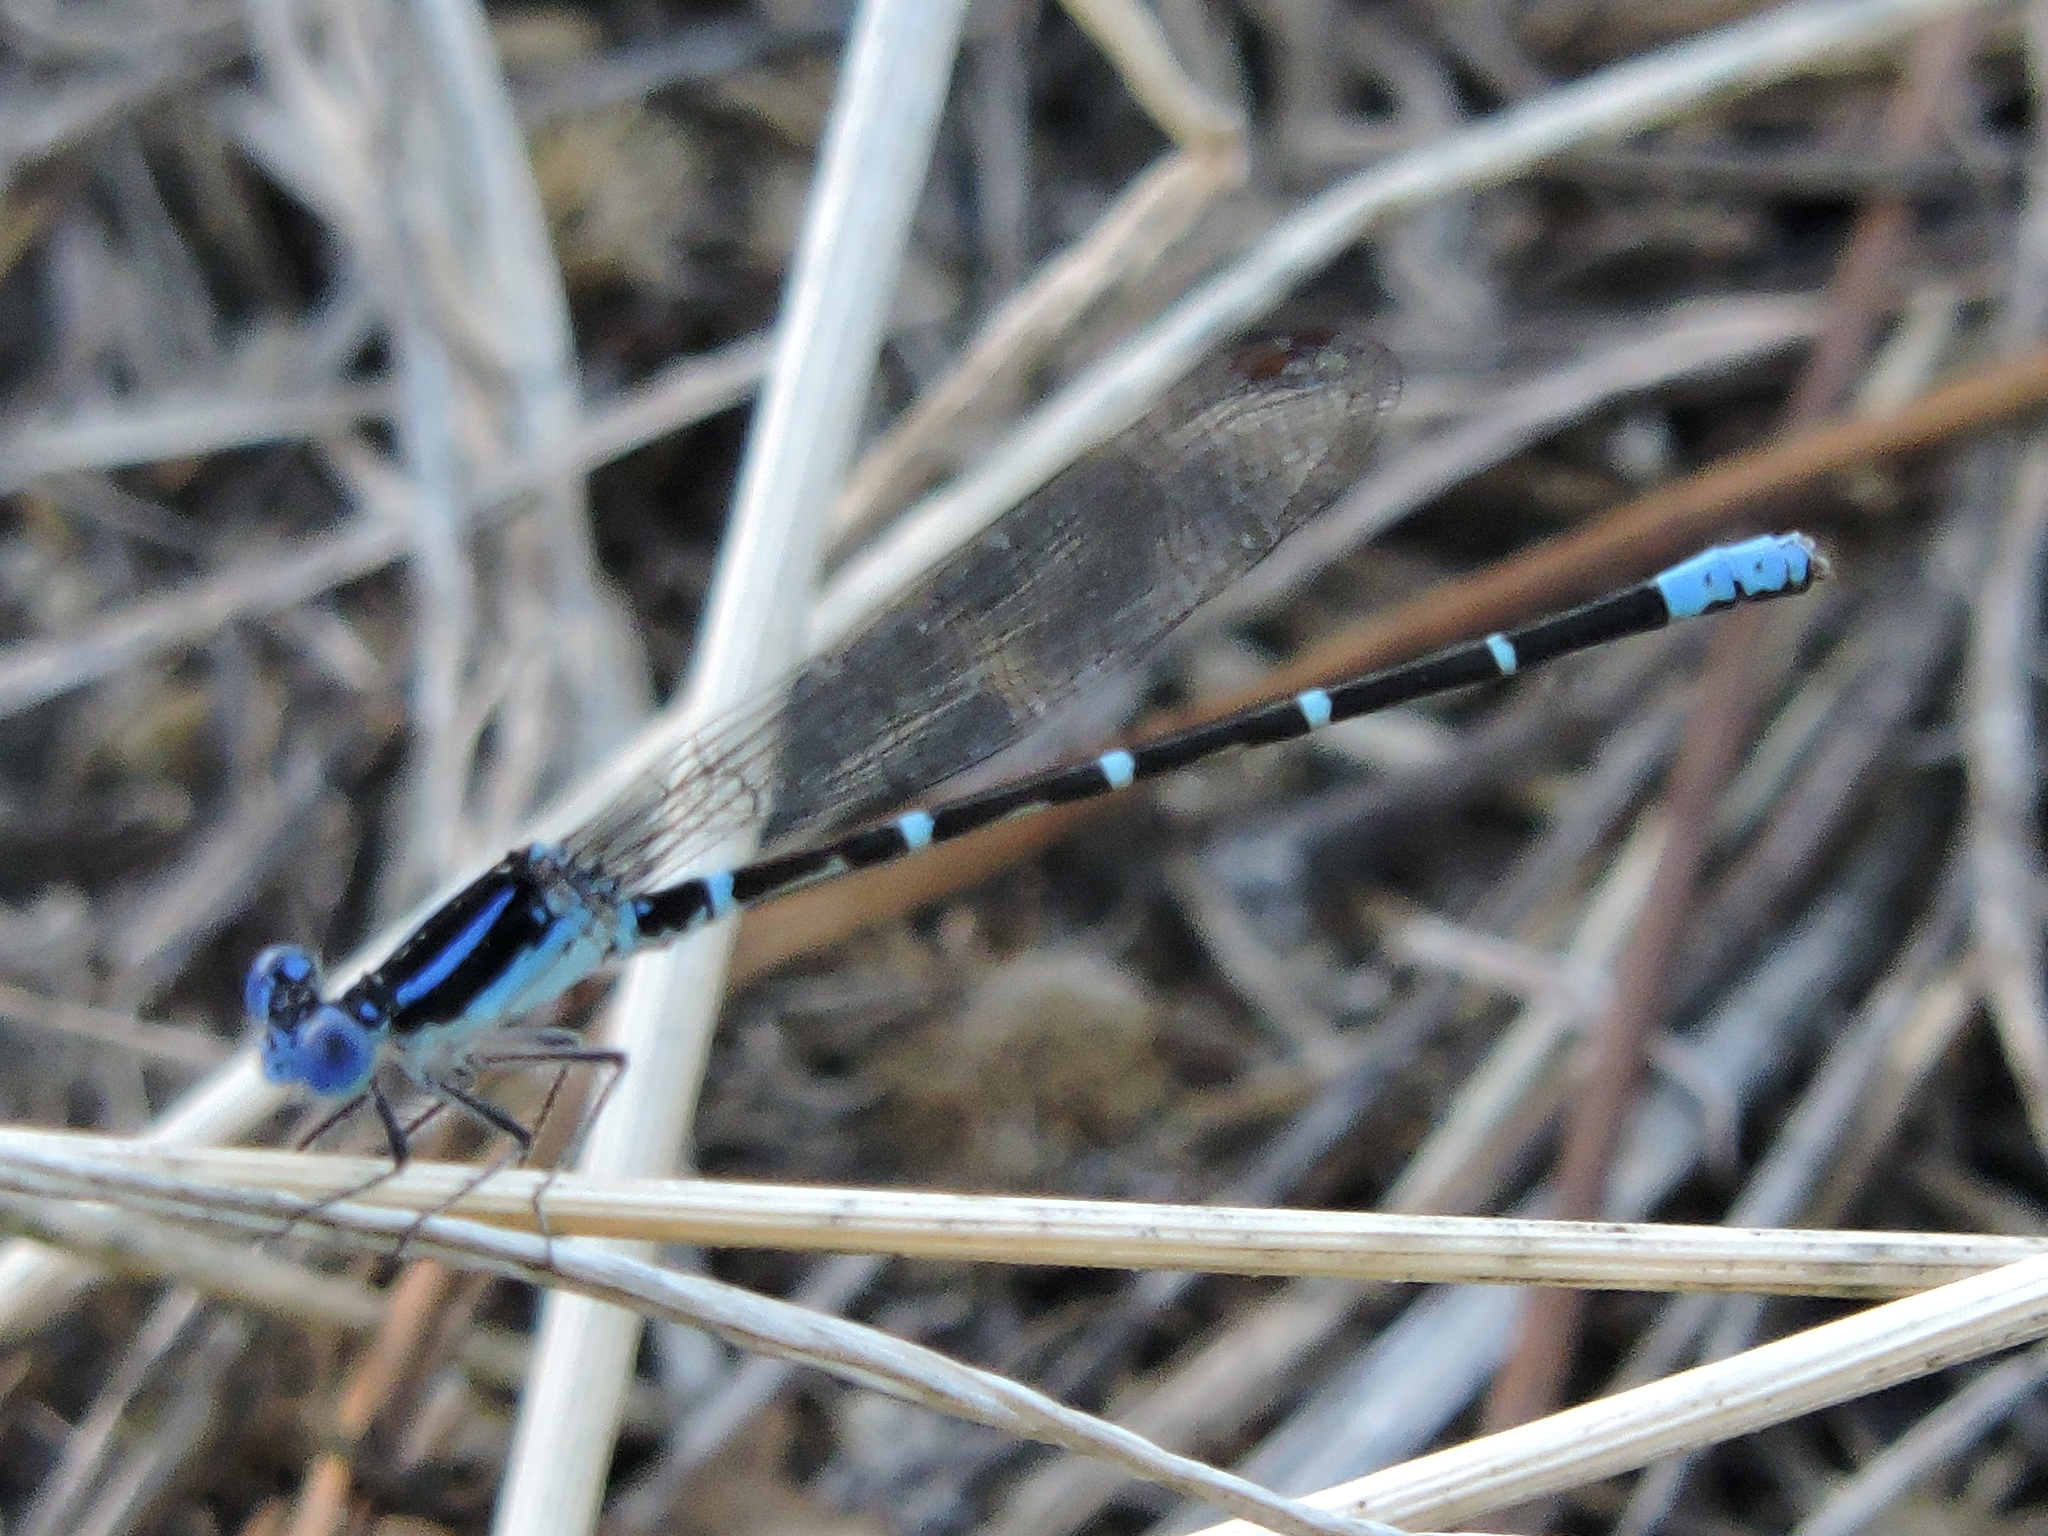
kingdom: Animalia
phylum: Arthropoda
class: Insecta
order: Odonata
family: Coenagrionidae
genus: Argia
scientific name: Argia sedula
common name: Blue-ringed dancer
